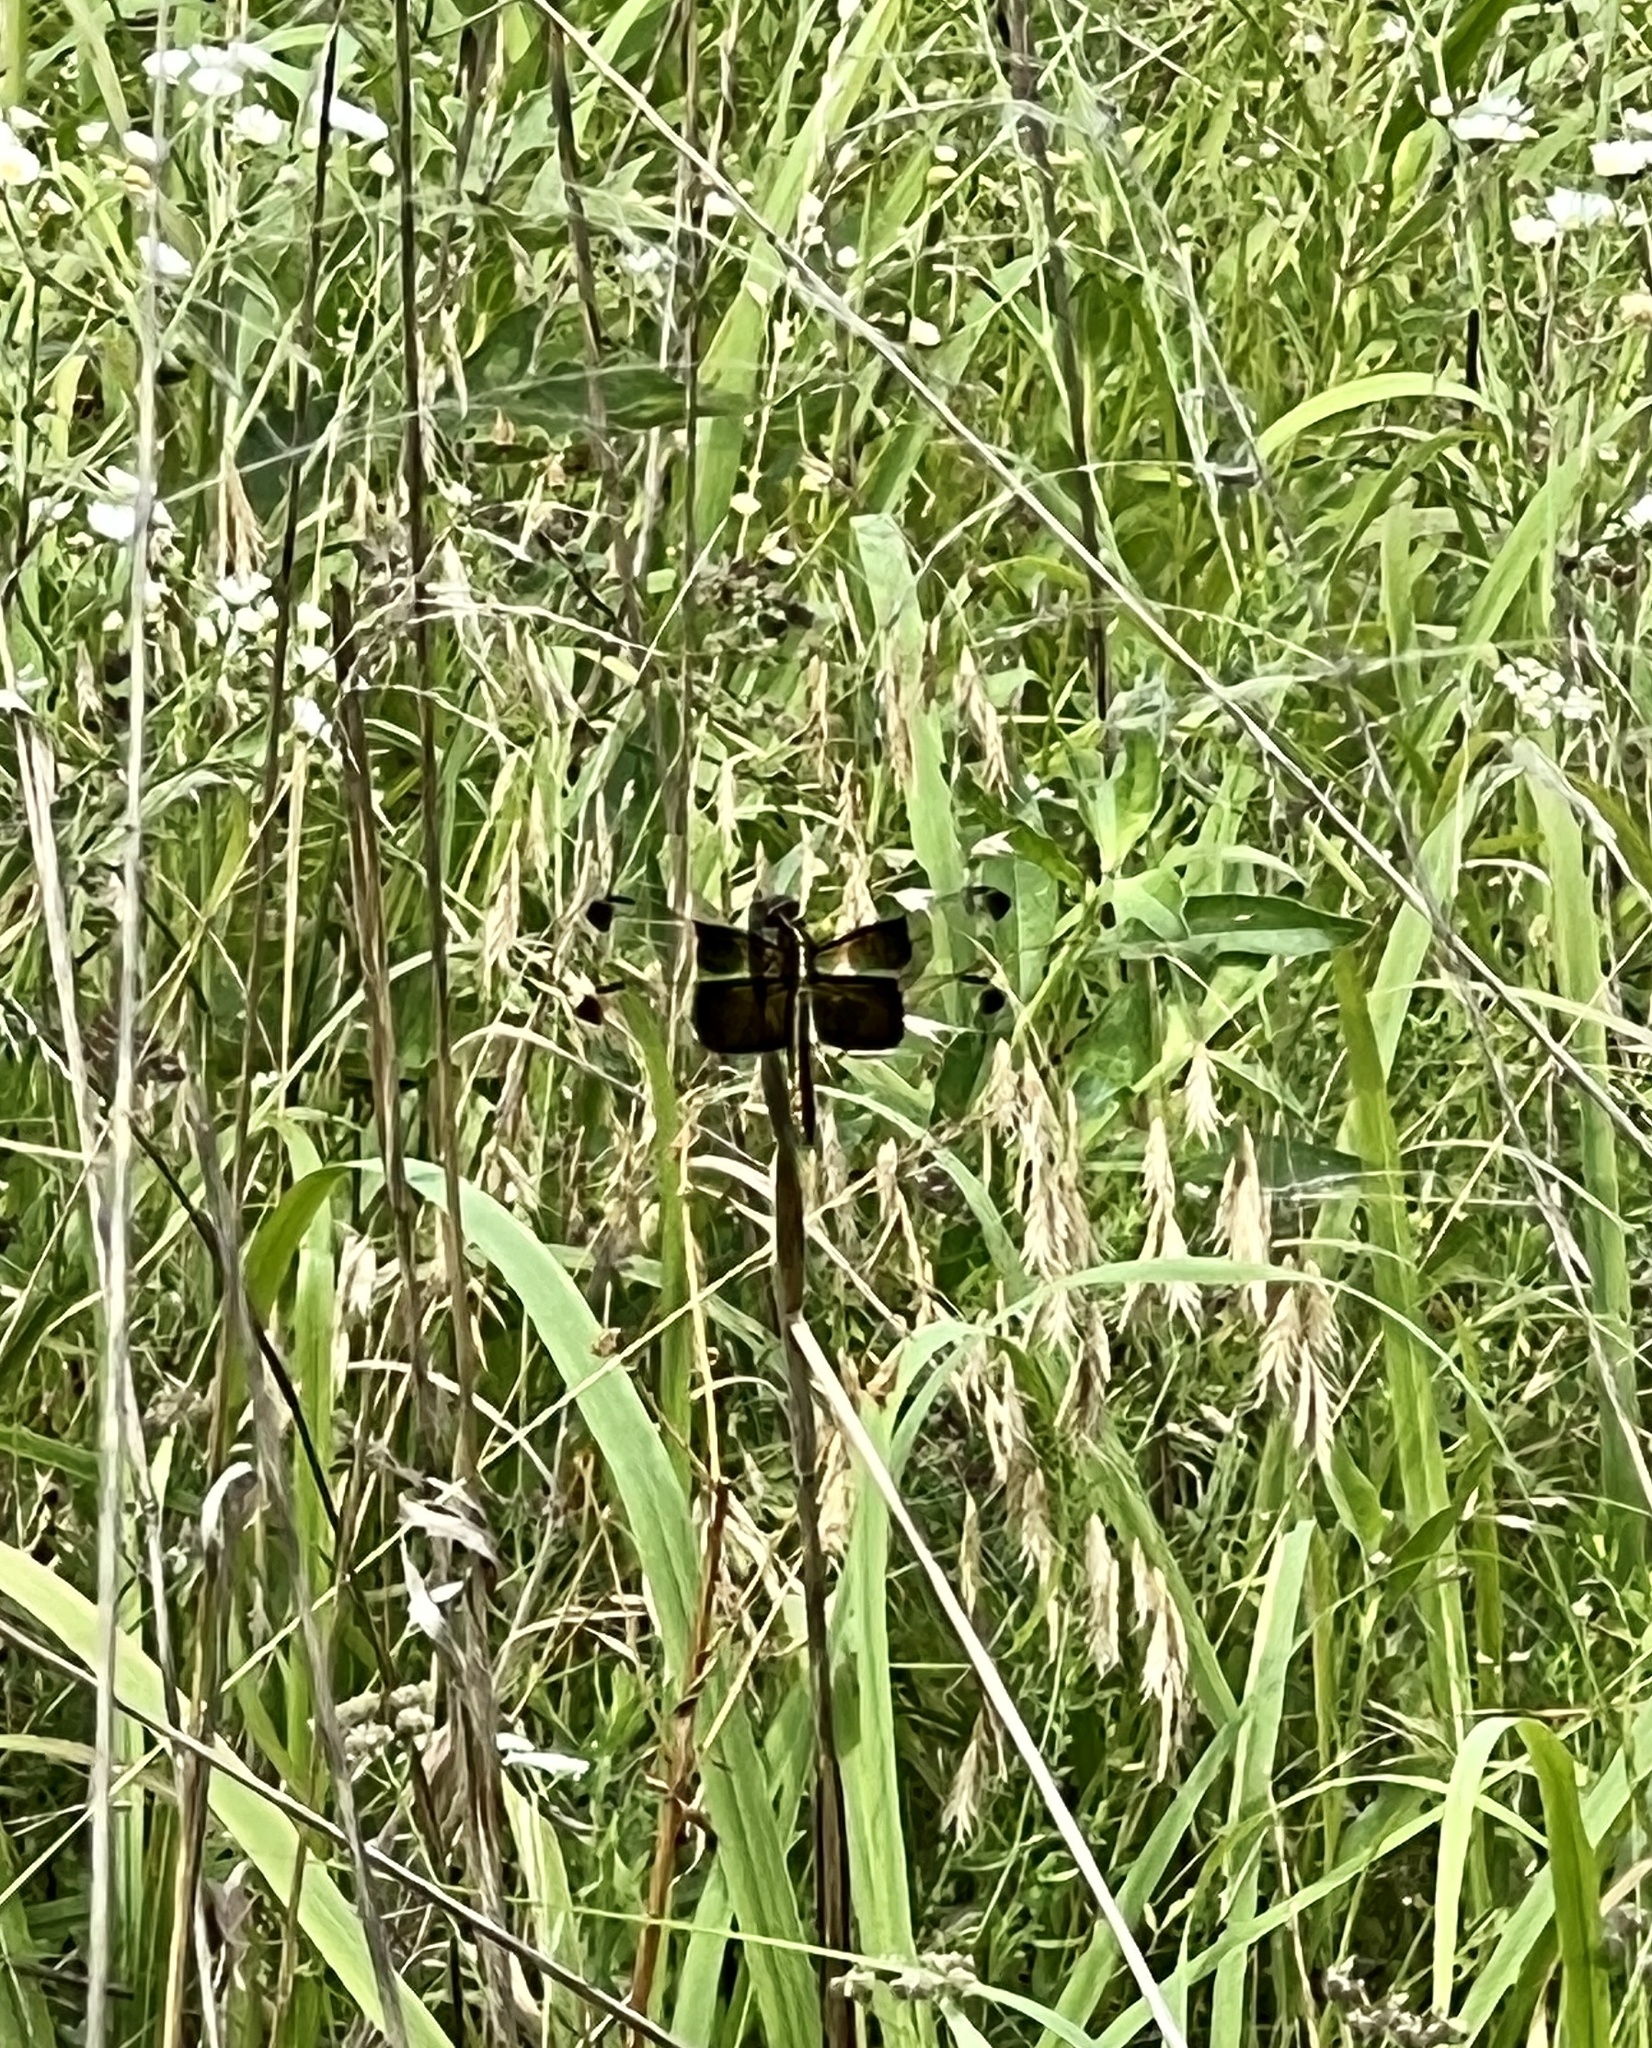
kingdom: Animalia
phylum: Arthropoda
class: Insecta
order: Odonata
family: Libellulidae
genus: Libellula
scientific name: Libellula luctuosa
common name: Widow skimmer
